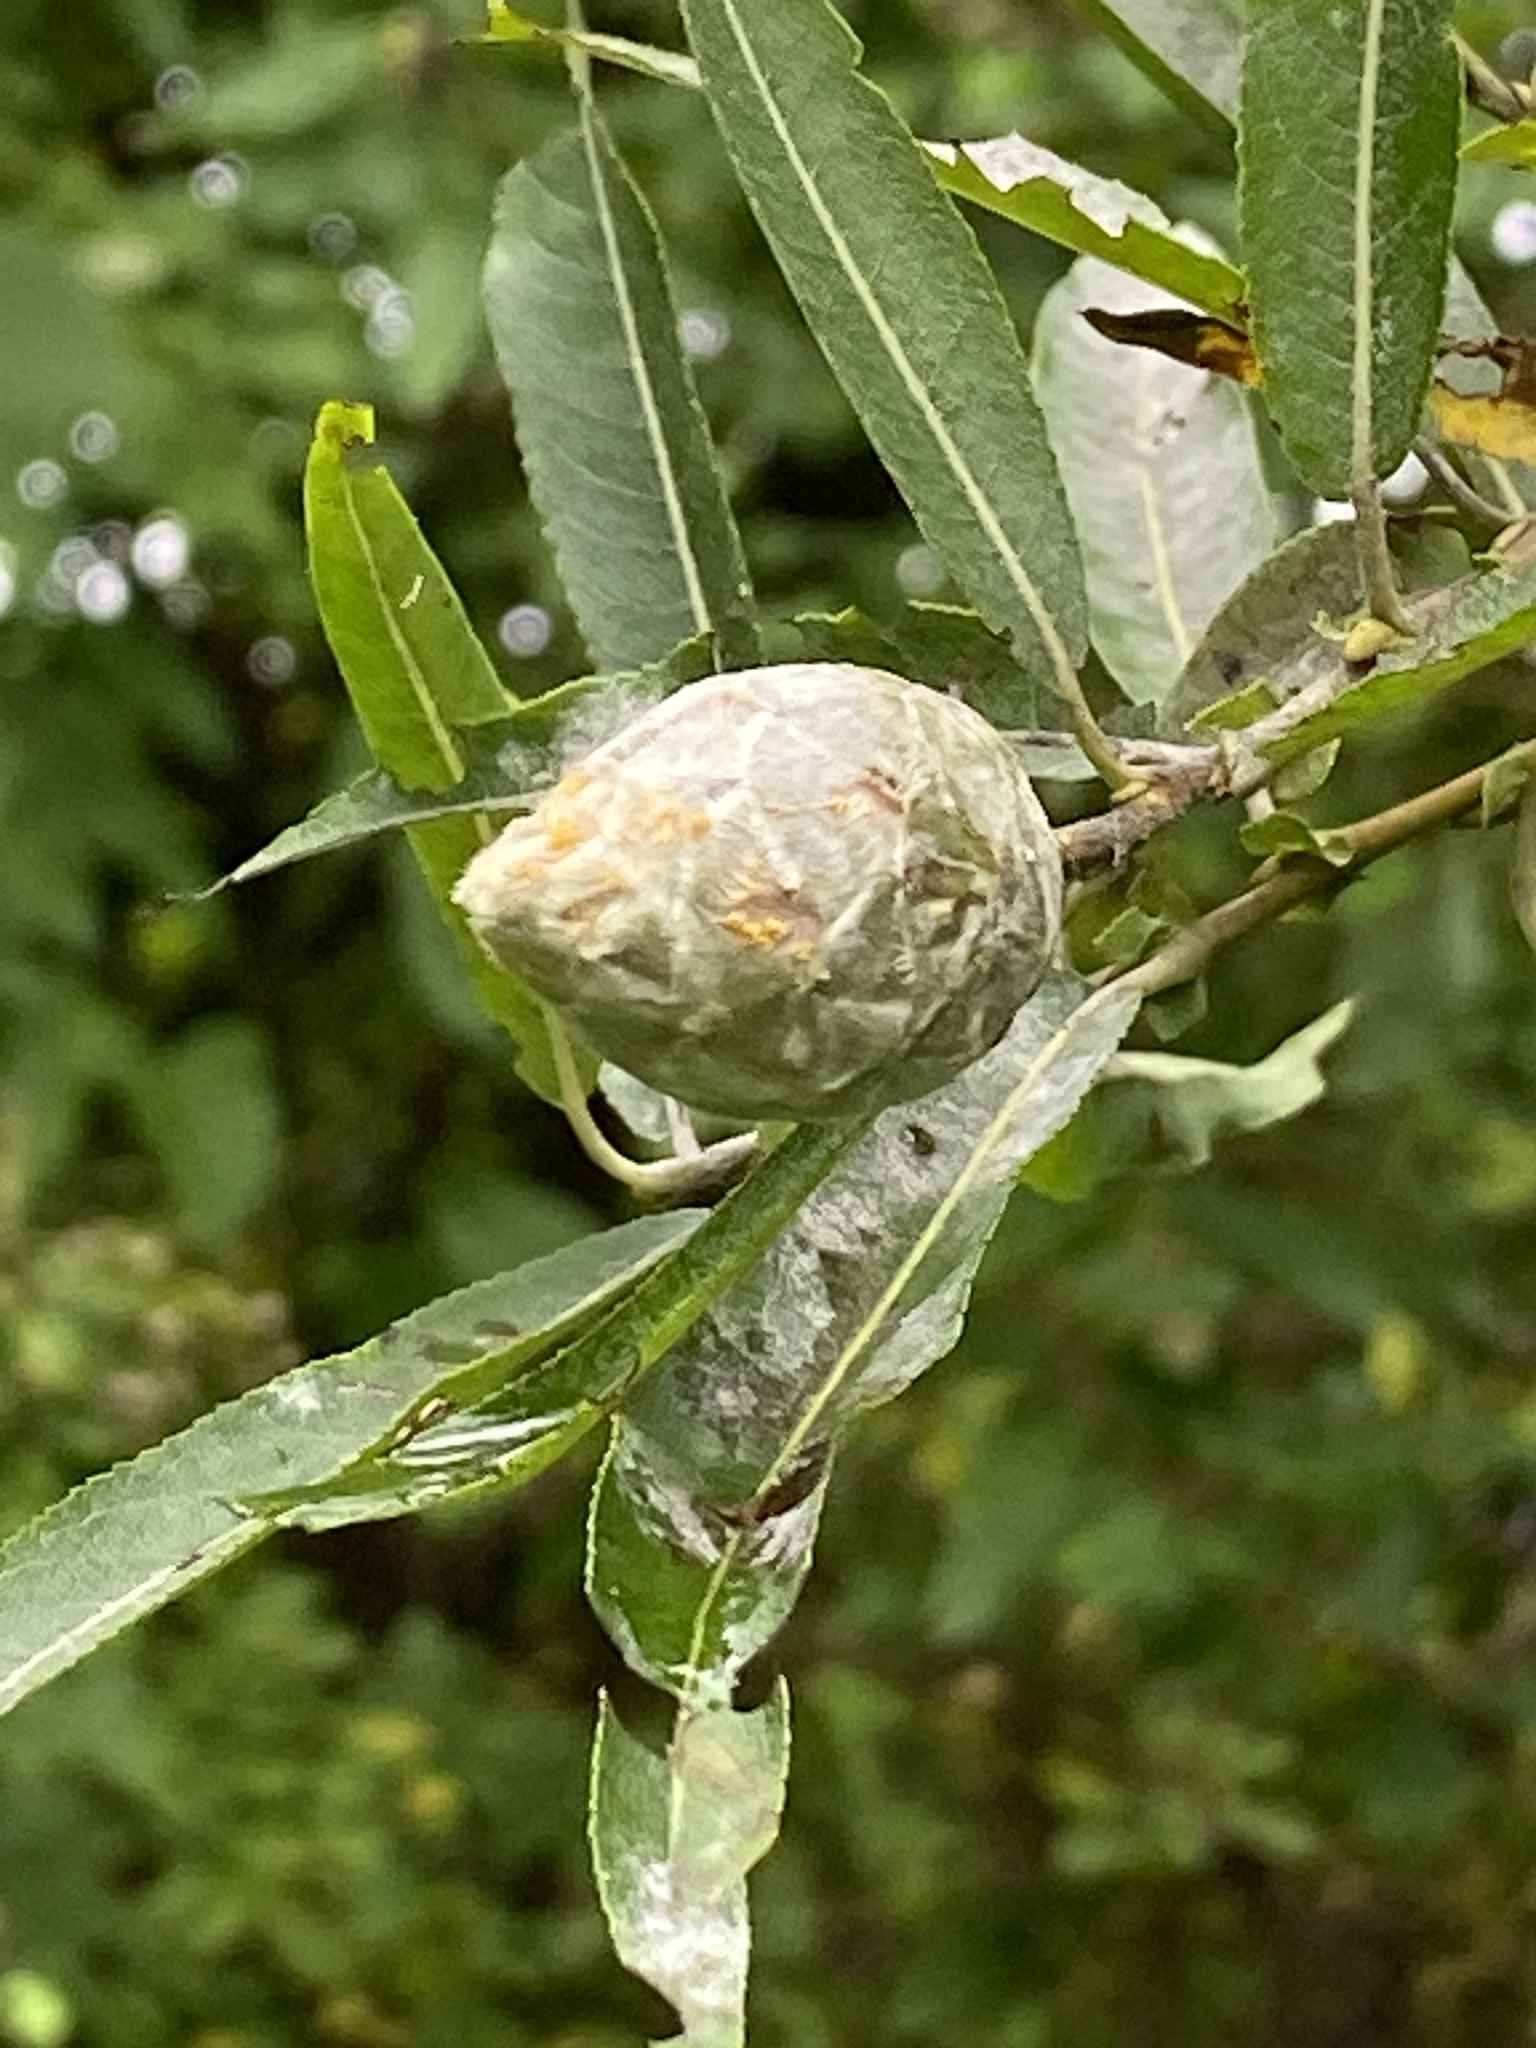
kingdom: Animalia
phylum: Arthropoda
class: Insecta
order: Diptera
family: Cecidomyiidae
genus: Rabdophaga
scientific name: Rabdophaga strobiloides
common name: Willow pinecone gall midge
